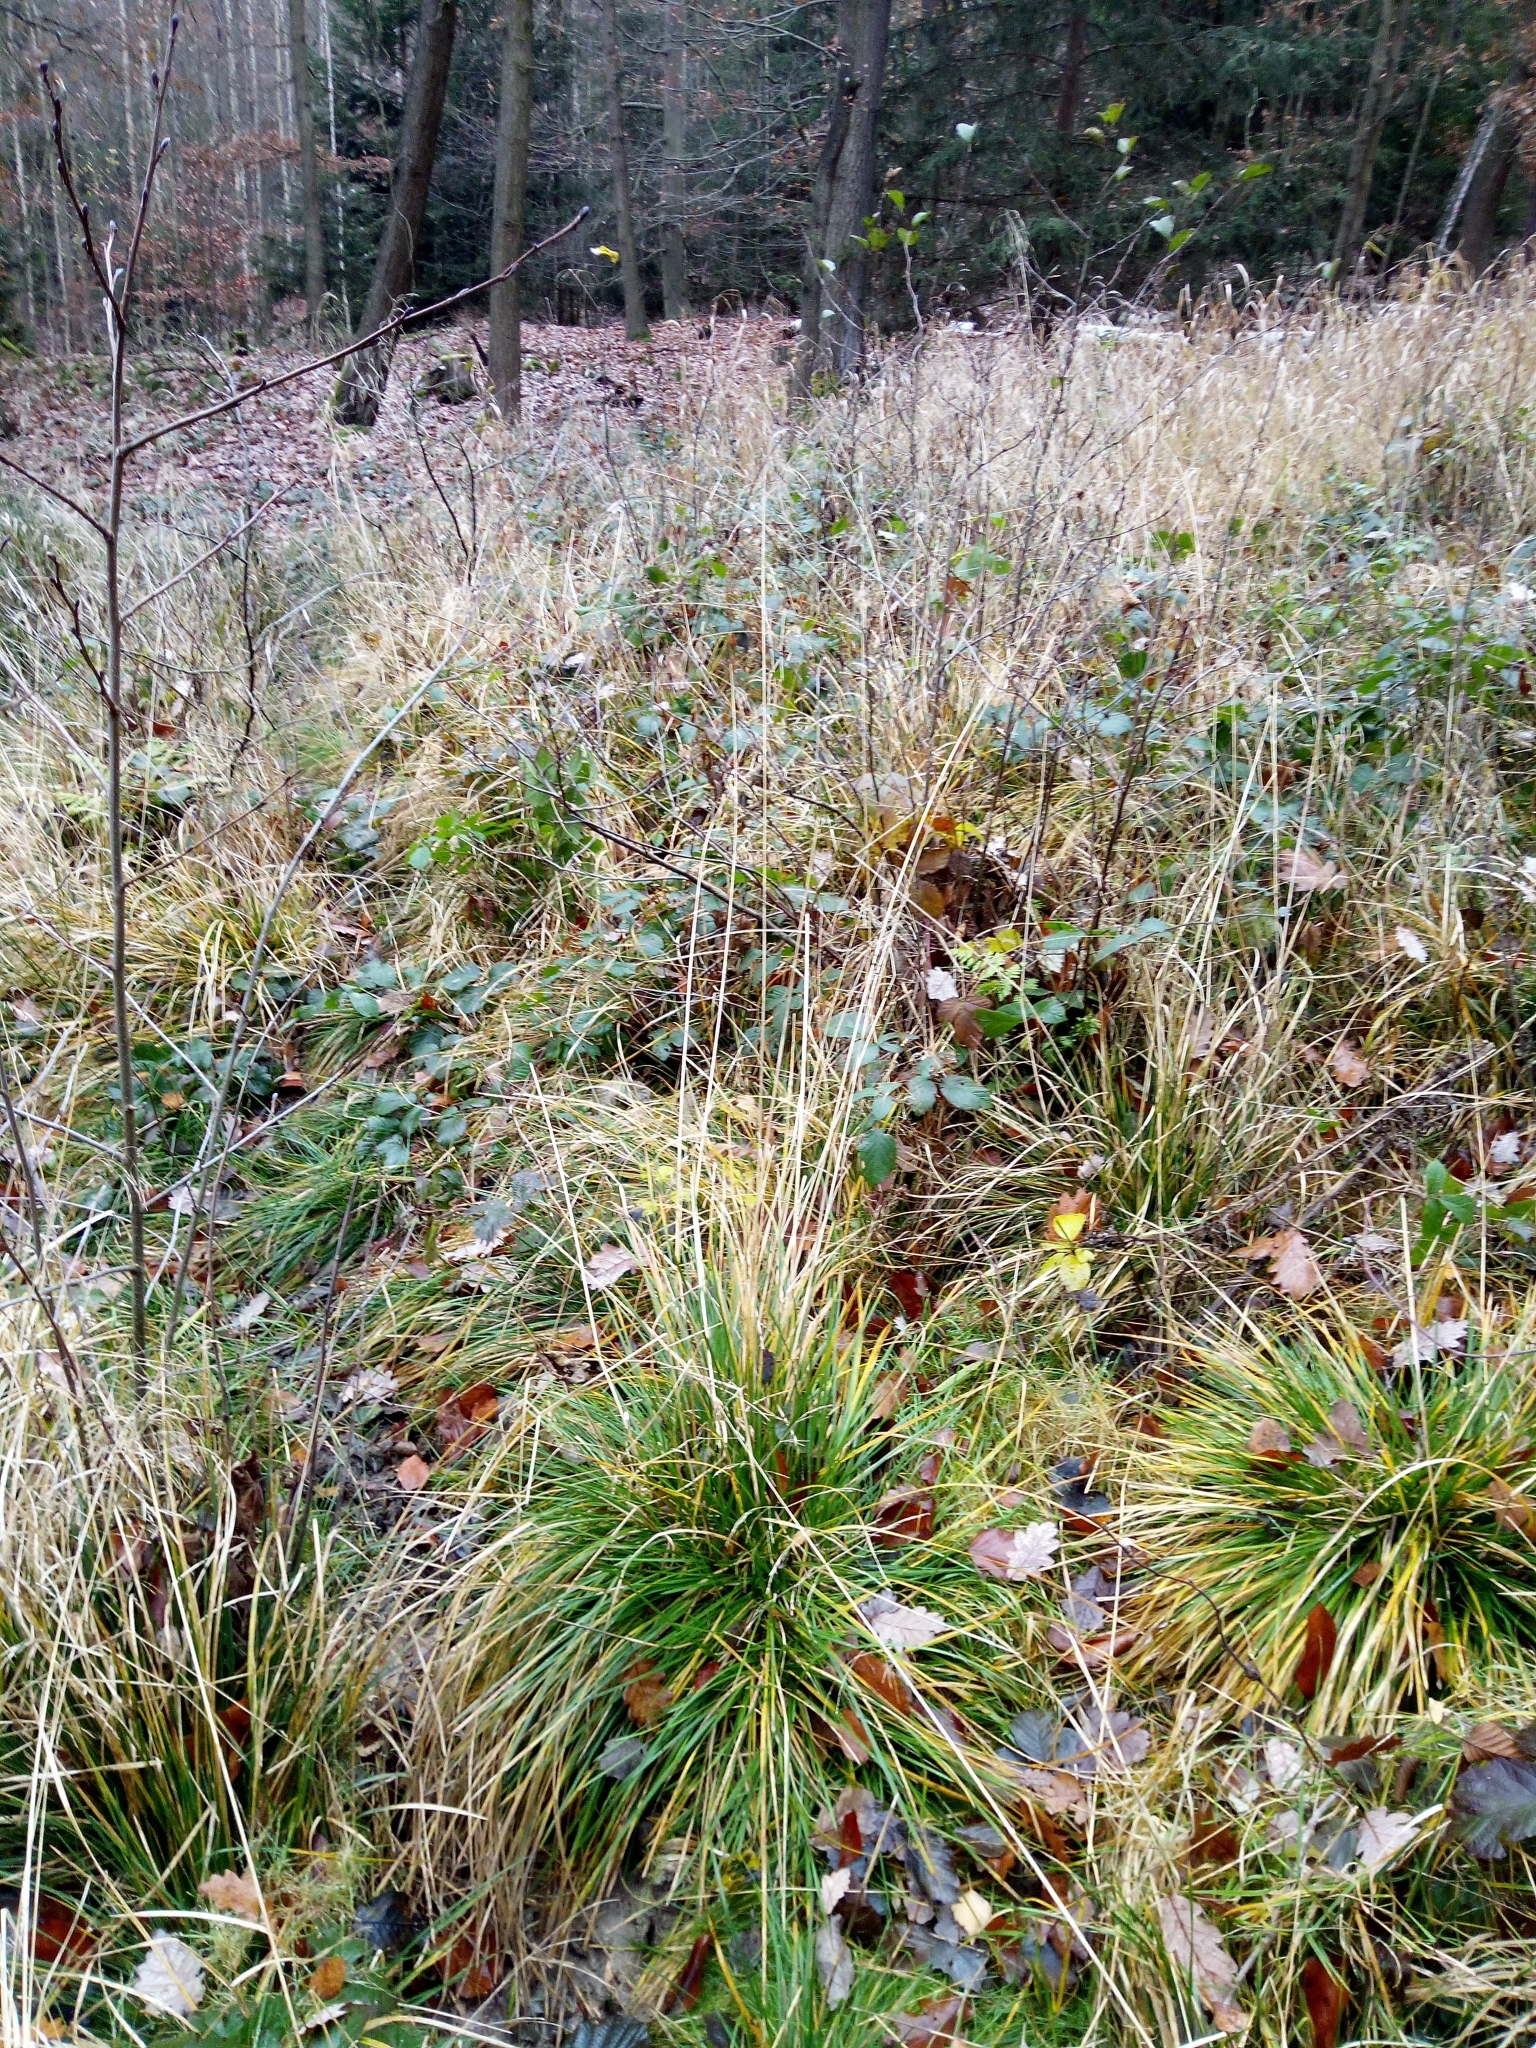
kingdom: Plantae
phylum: Tracheophyta
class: Liliopsida
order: Poales
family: Poaceae
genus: Deschampsia
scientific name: Deschampsia cespitosa
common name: Tufted hair-grass
